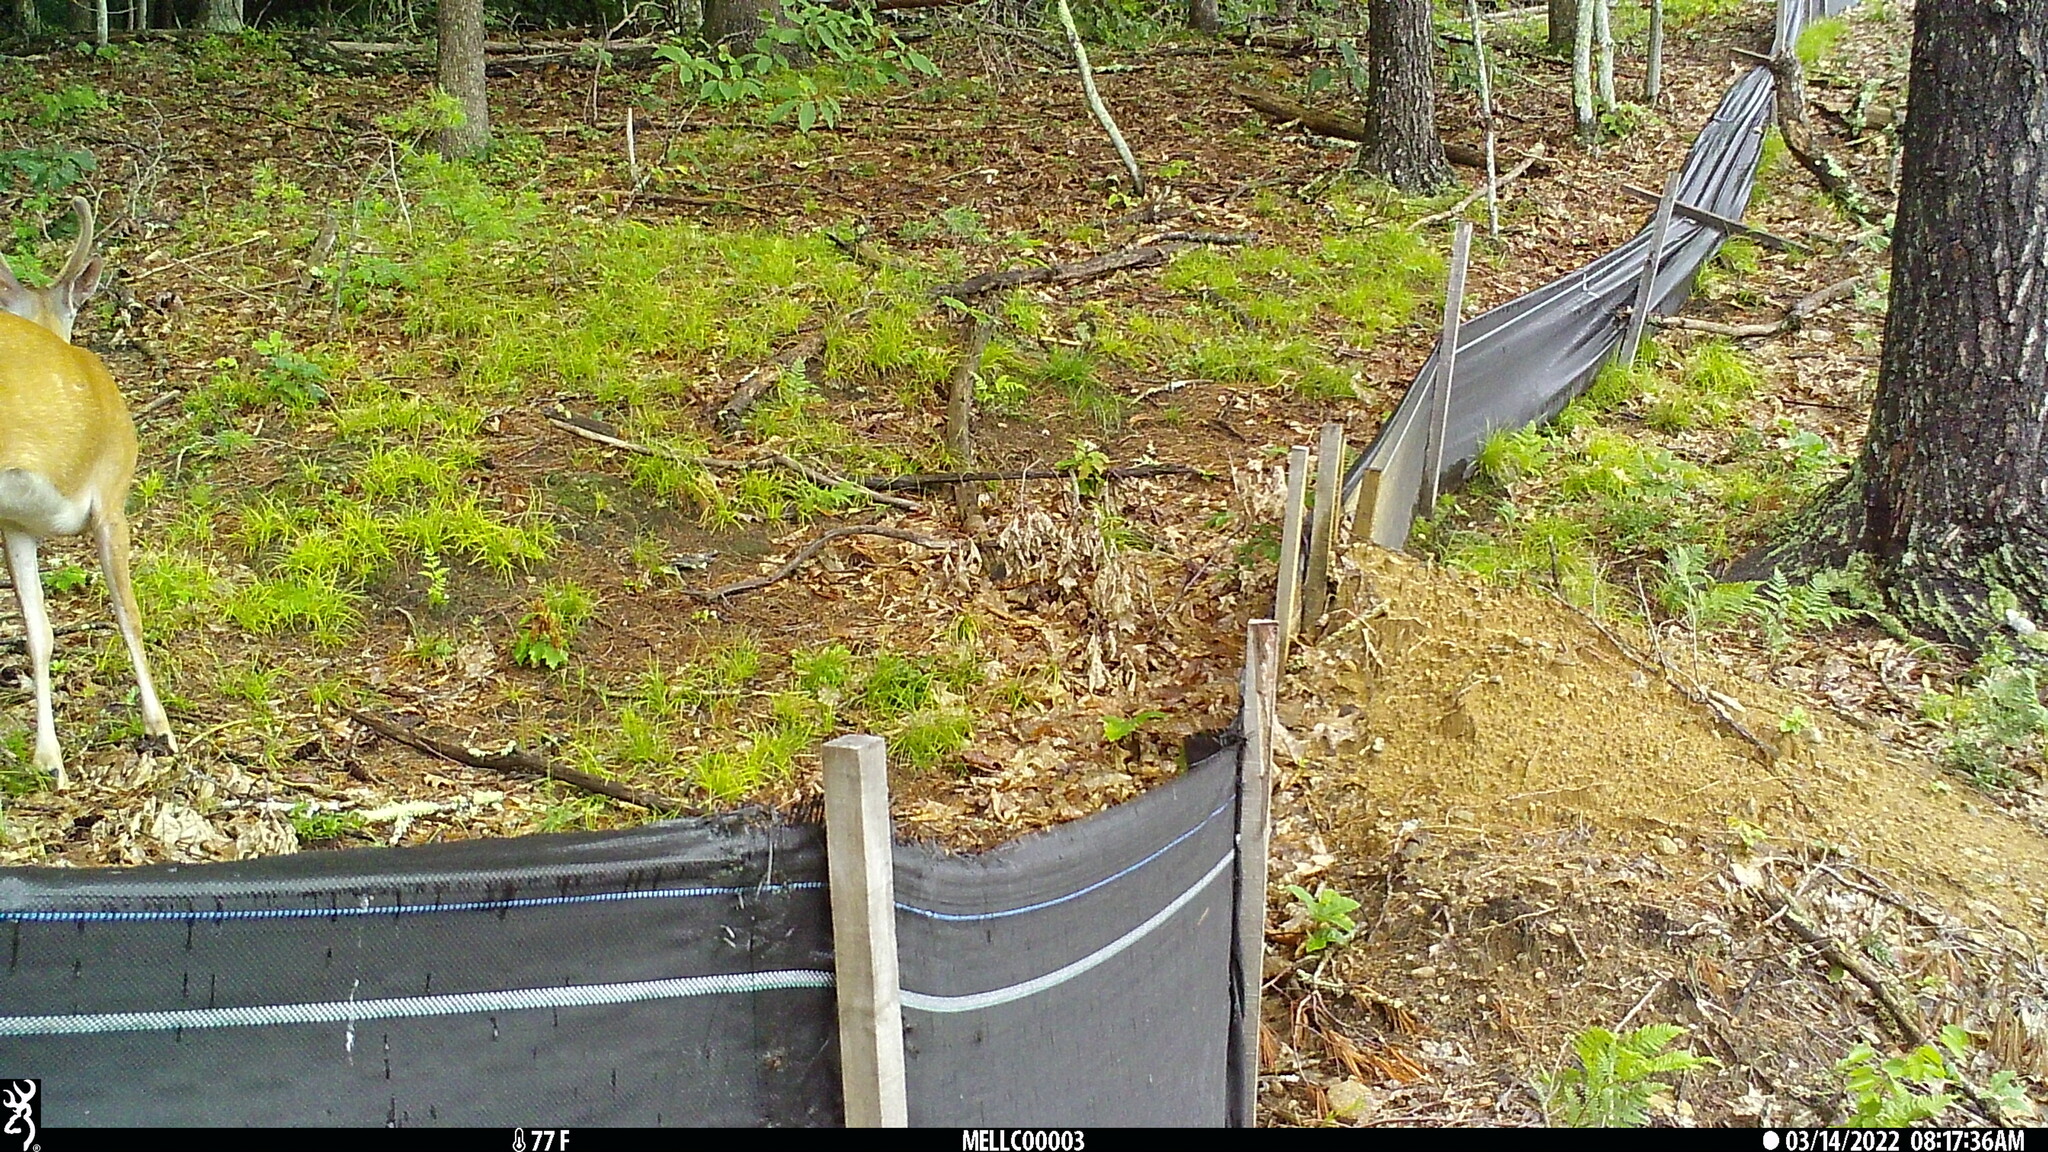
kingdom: Animalia
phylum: Chordata
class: Mammalia
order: Artiodactyla
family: Cervidae
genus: Odocoileus
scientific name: Odocoileus virginianus
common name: White-tailed deer
